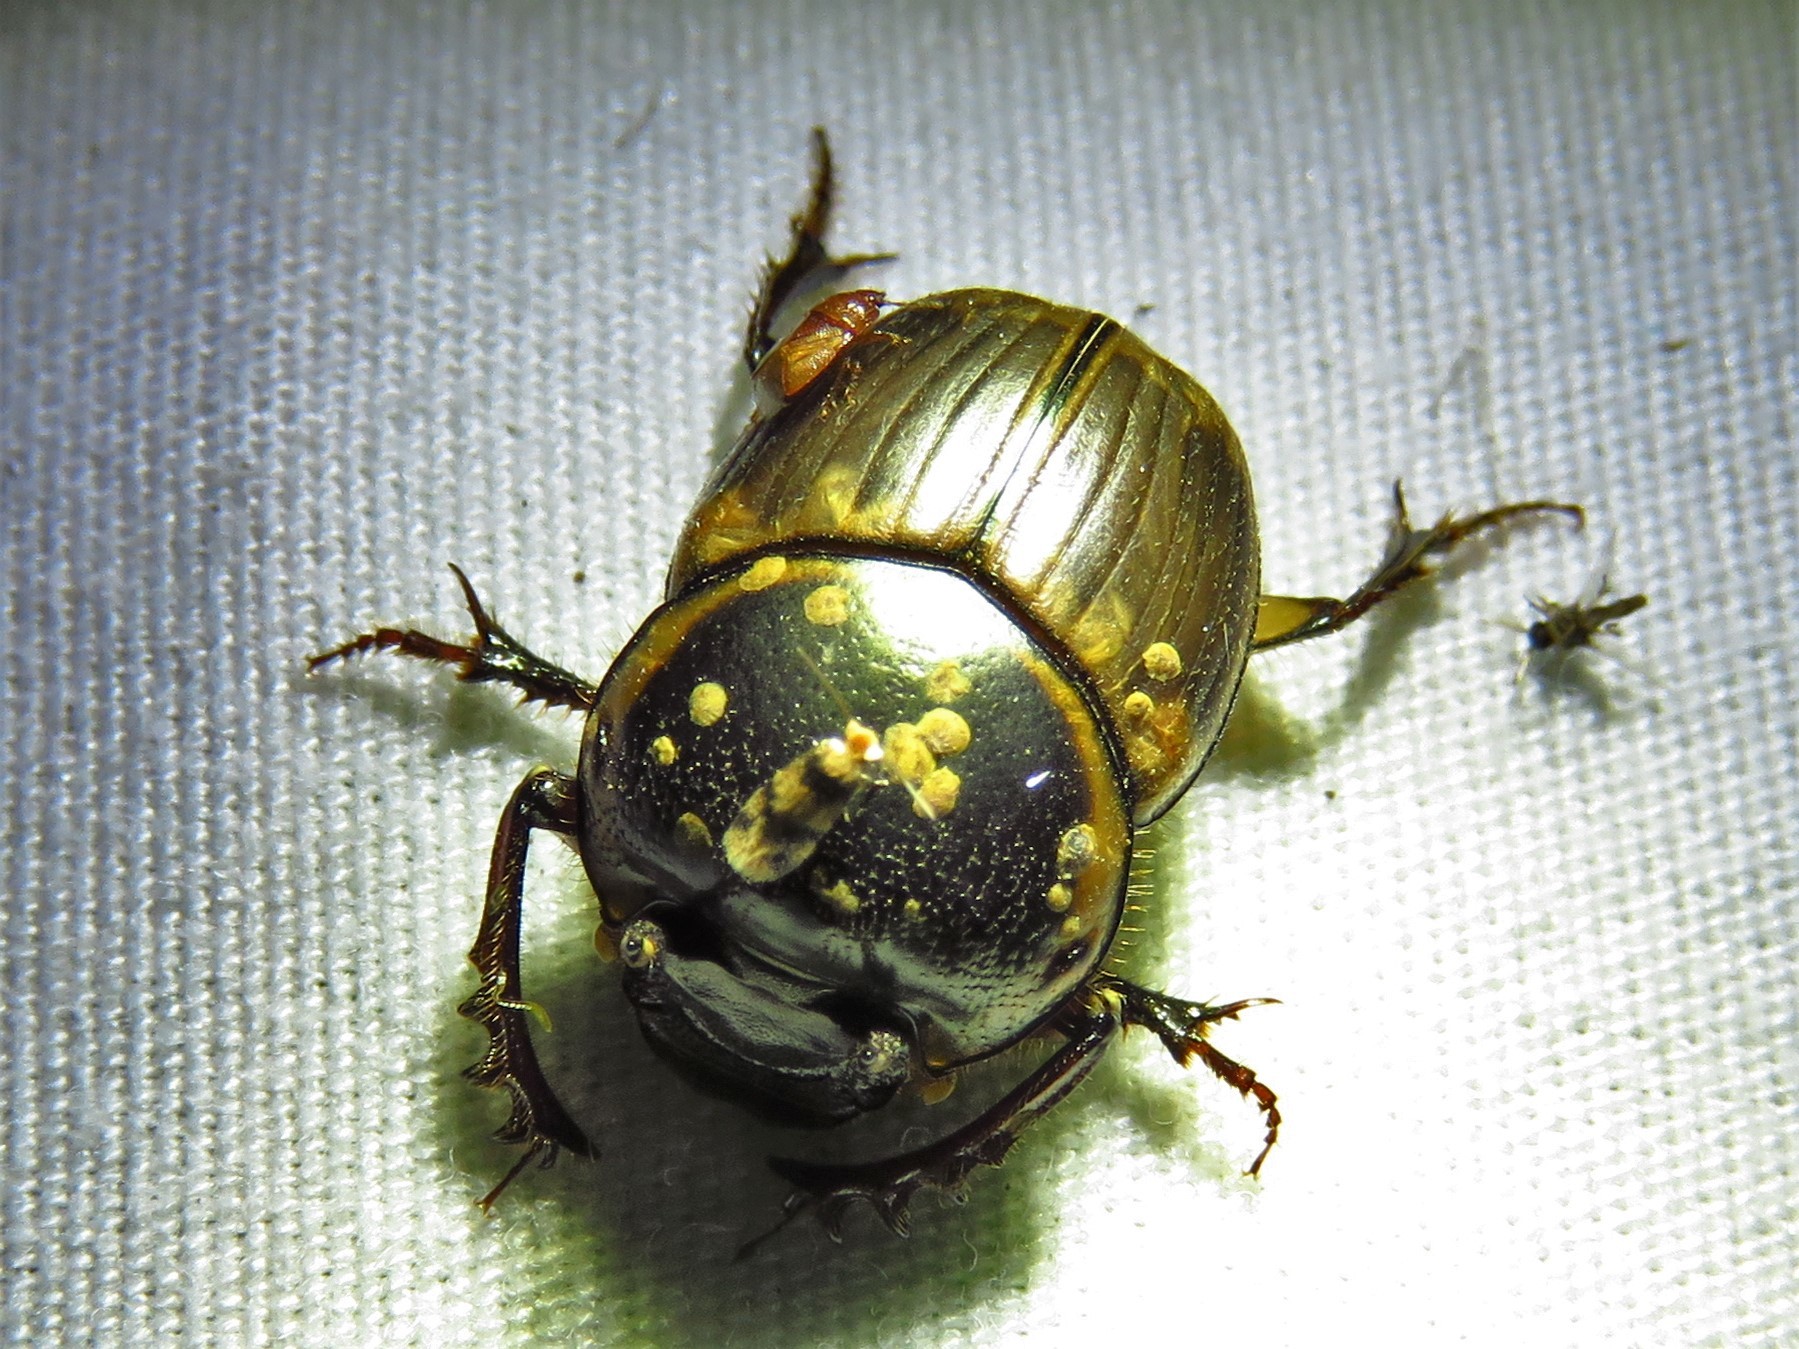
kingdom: Animalia
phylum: Arthropoda
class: Insecta
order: Coleoptera
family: Scarabaeidae
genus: Digitonthophagus
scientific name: Digitonthophagus gazella
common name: Brown dung beetle
